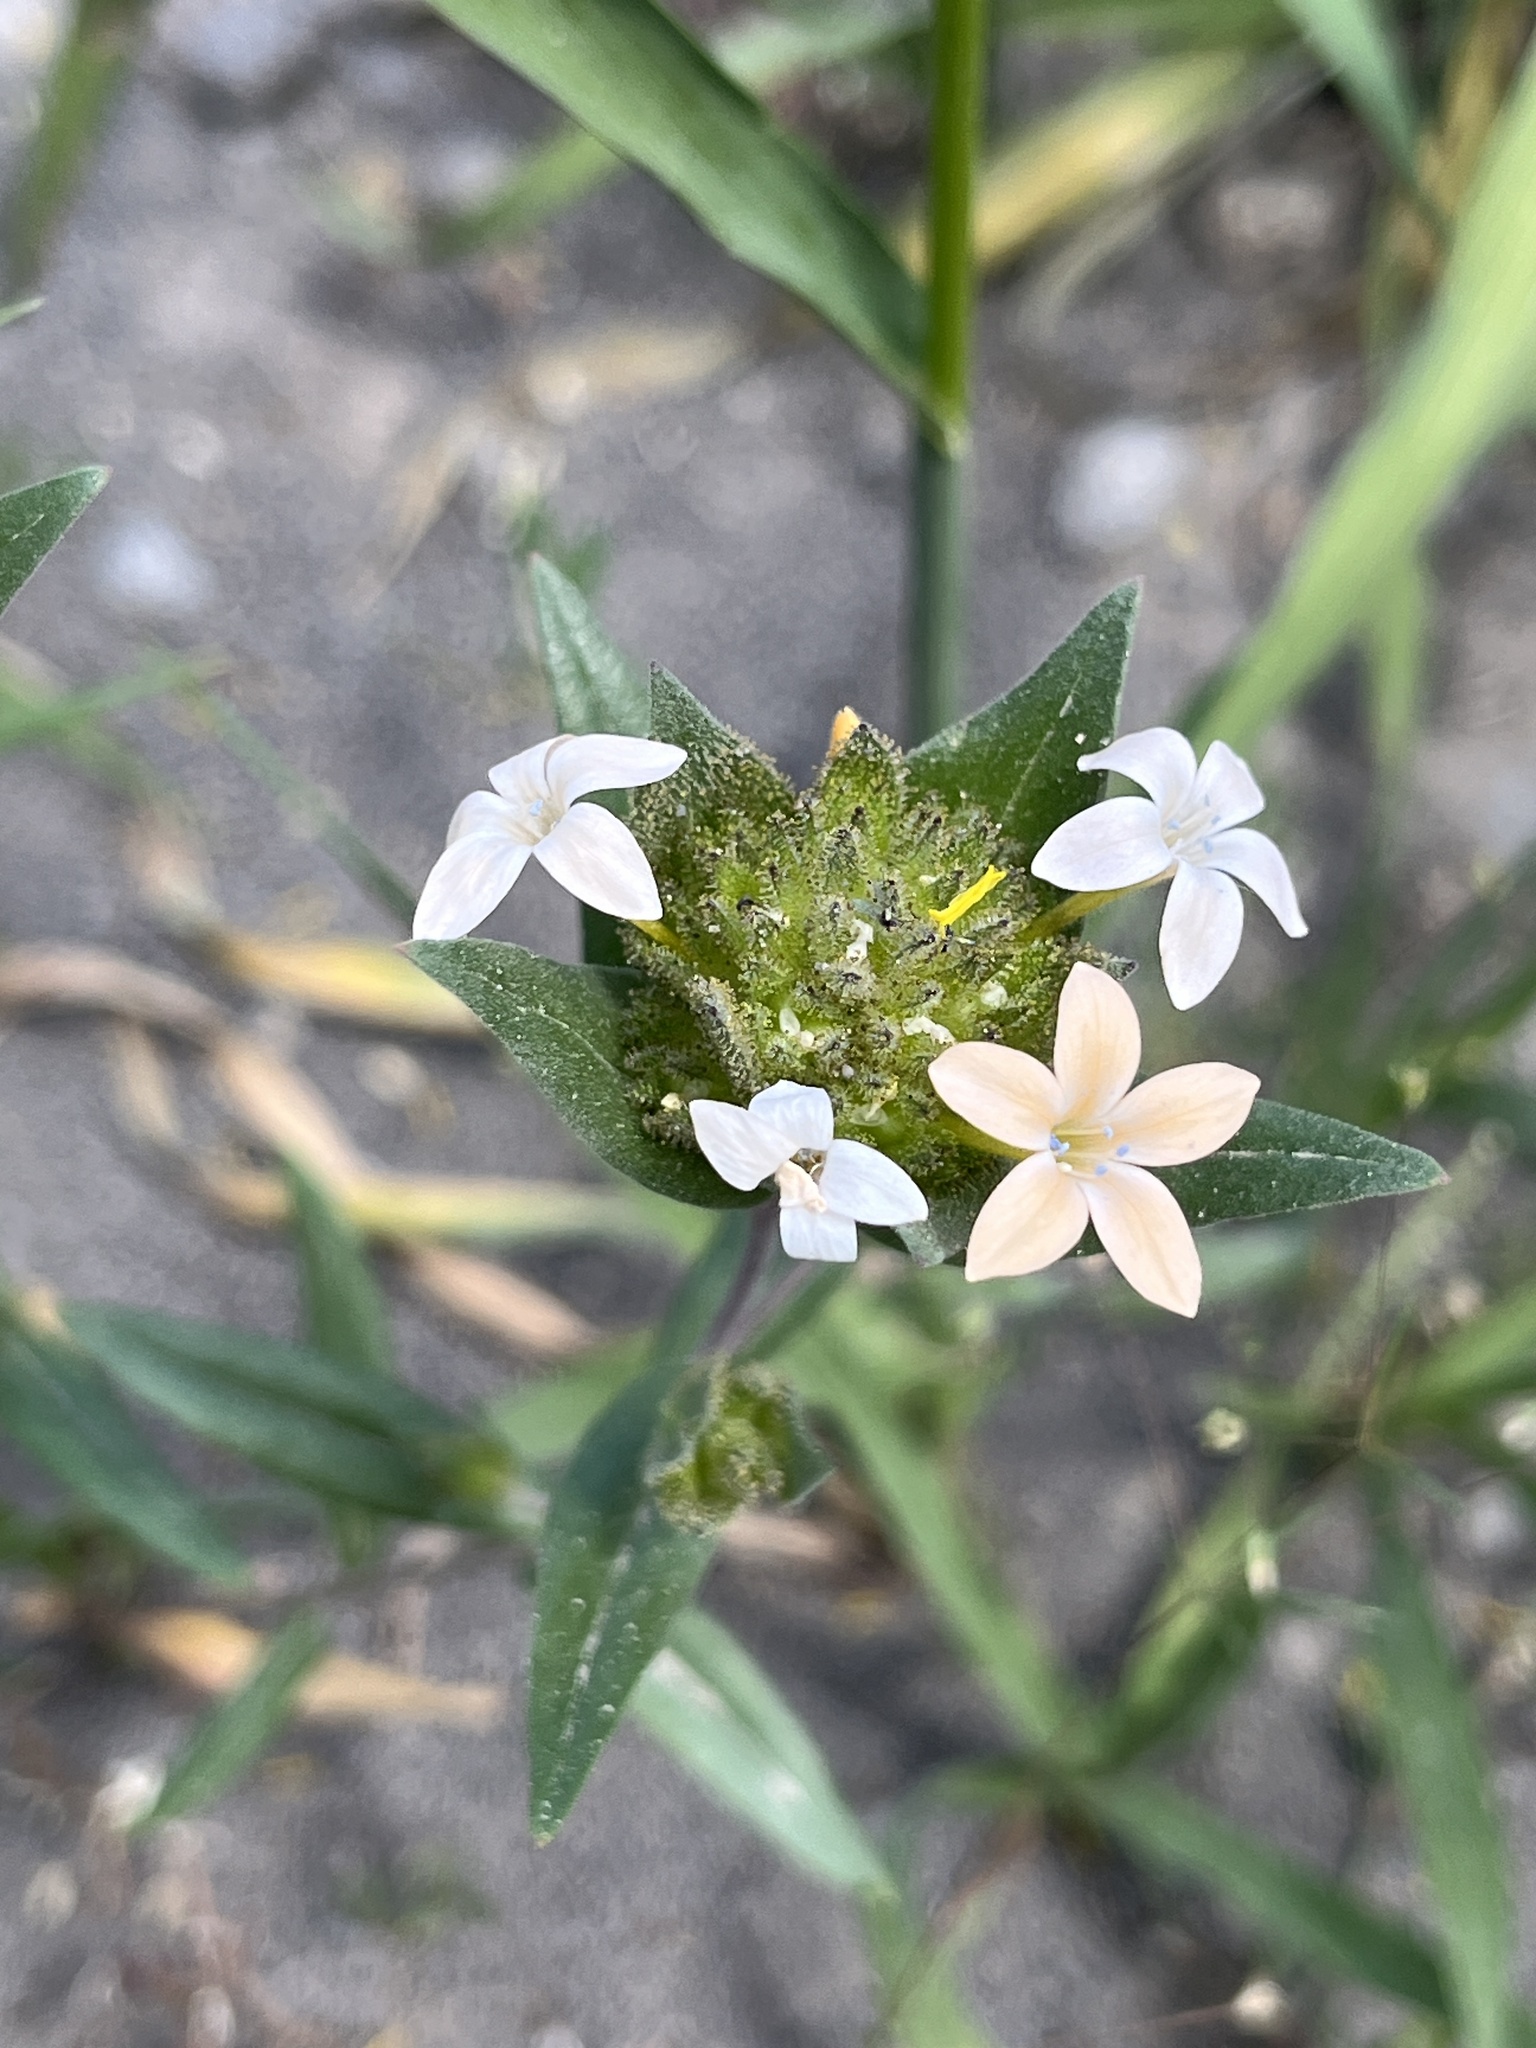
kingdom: Plantae
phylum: Tracheophyta
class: Magnoliopsida
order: Ericales
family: Polemoniaceae
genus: Collomia
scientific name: Collomia grandiflora
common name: California strawflower
